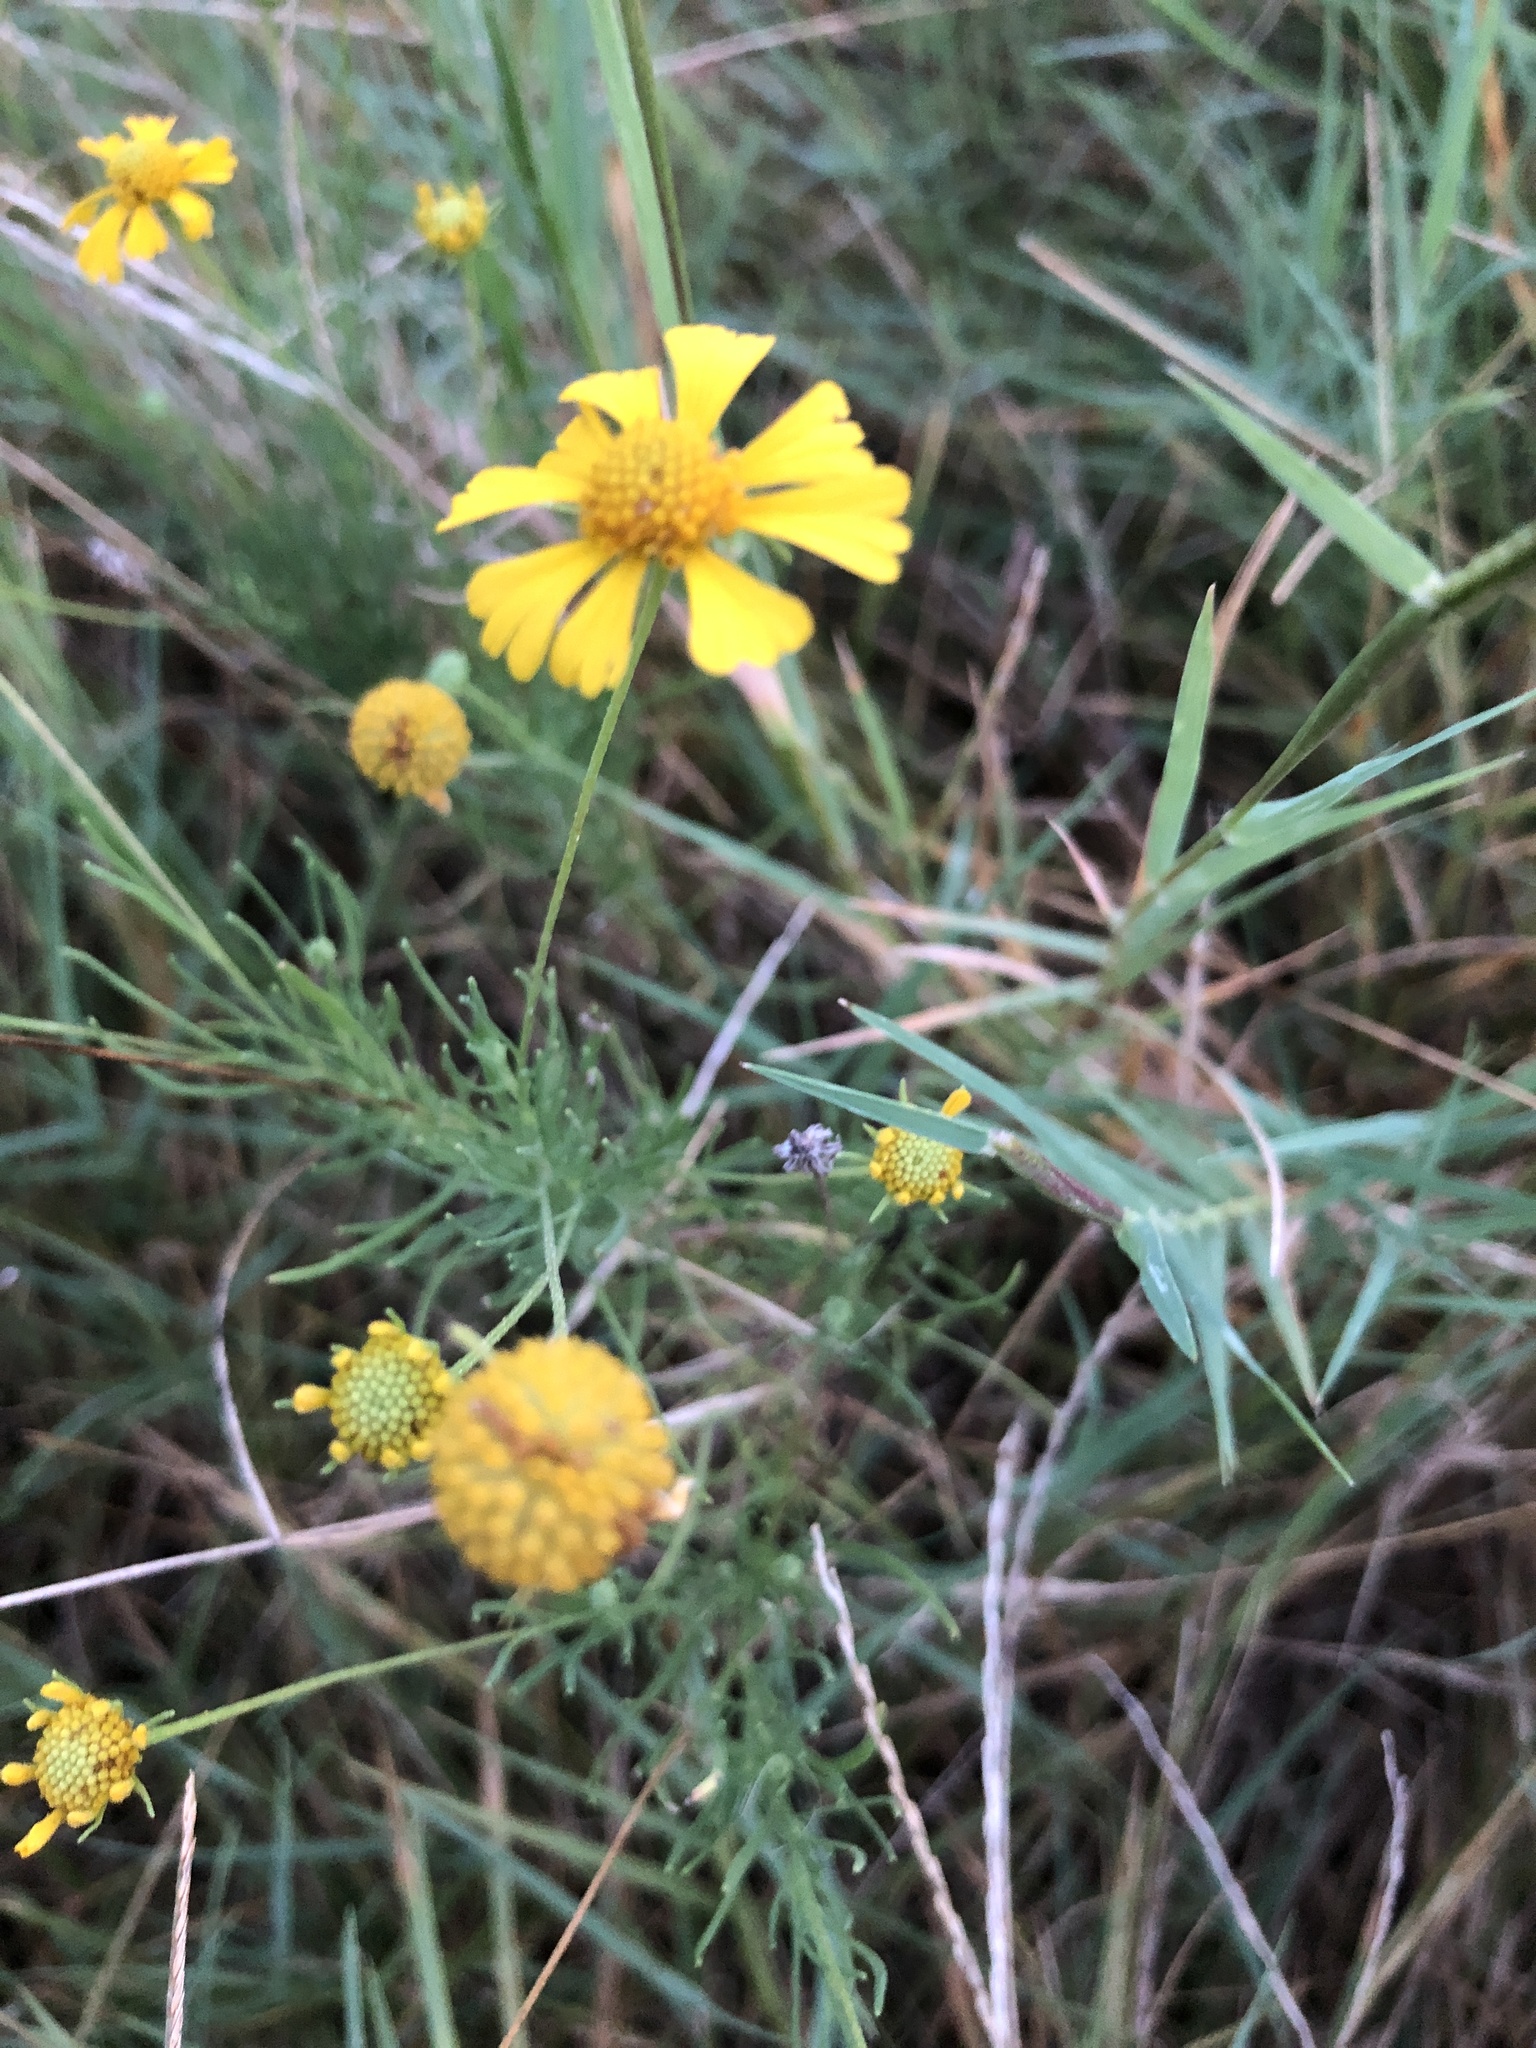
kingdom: Plantae
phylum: Tracheophyta
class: Magnoliopsida
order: Asterales
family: Asteraceae
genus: Helenium
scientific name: Helenium amarum
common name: Bitter sneezeweed
